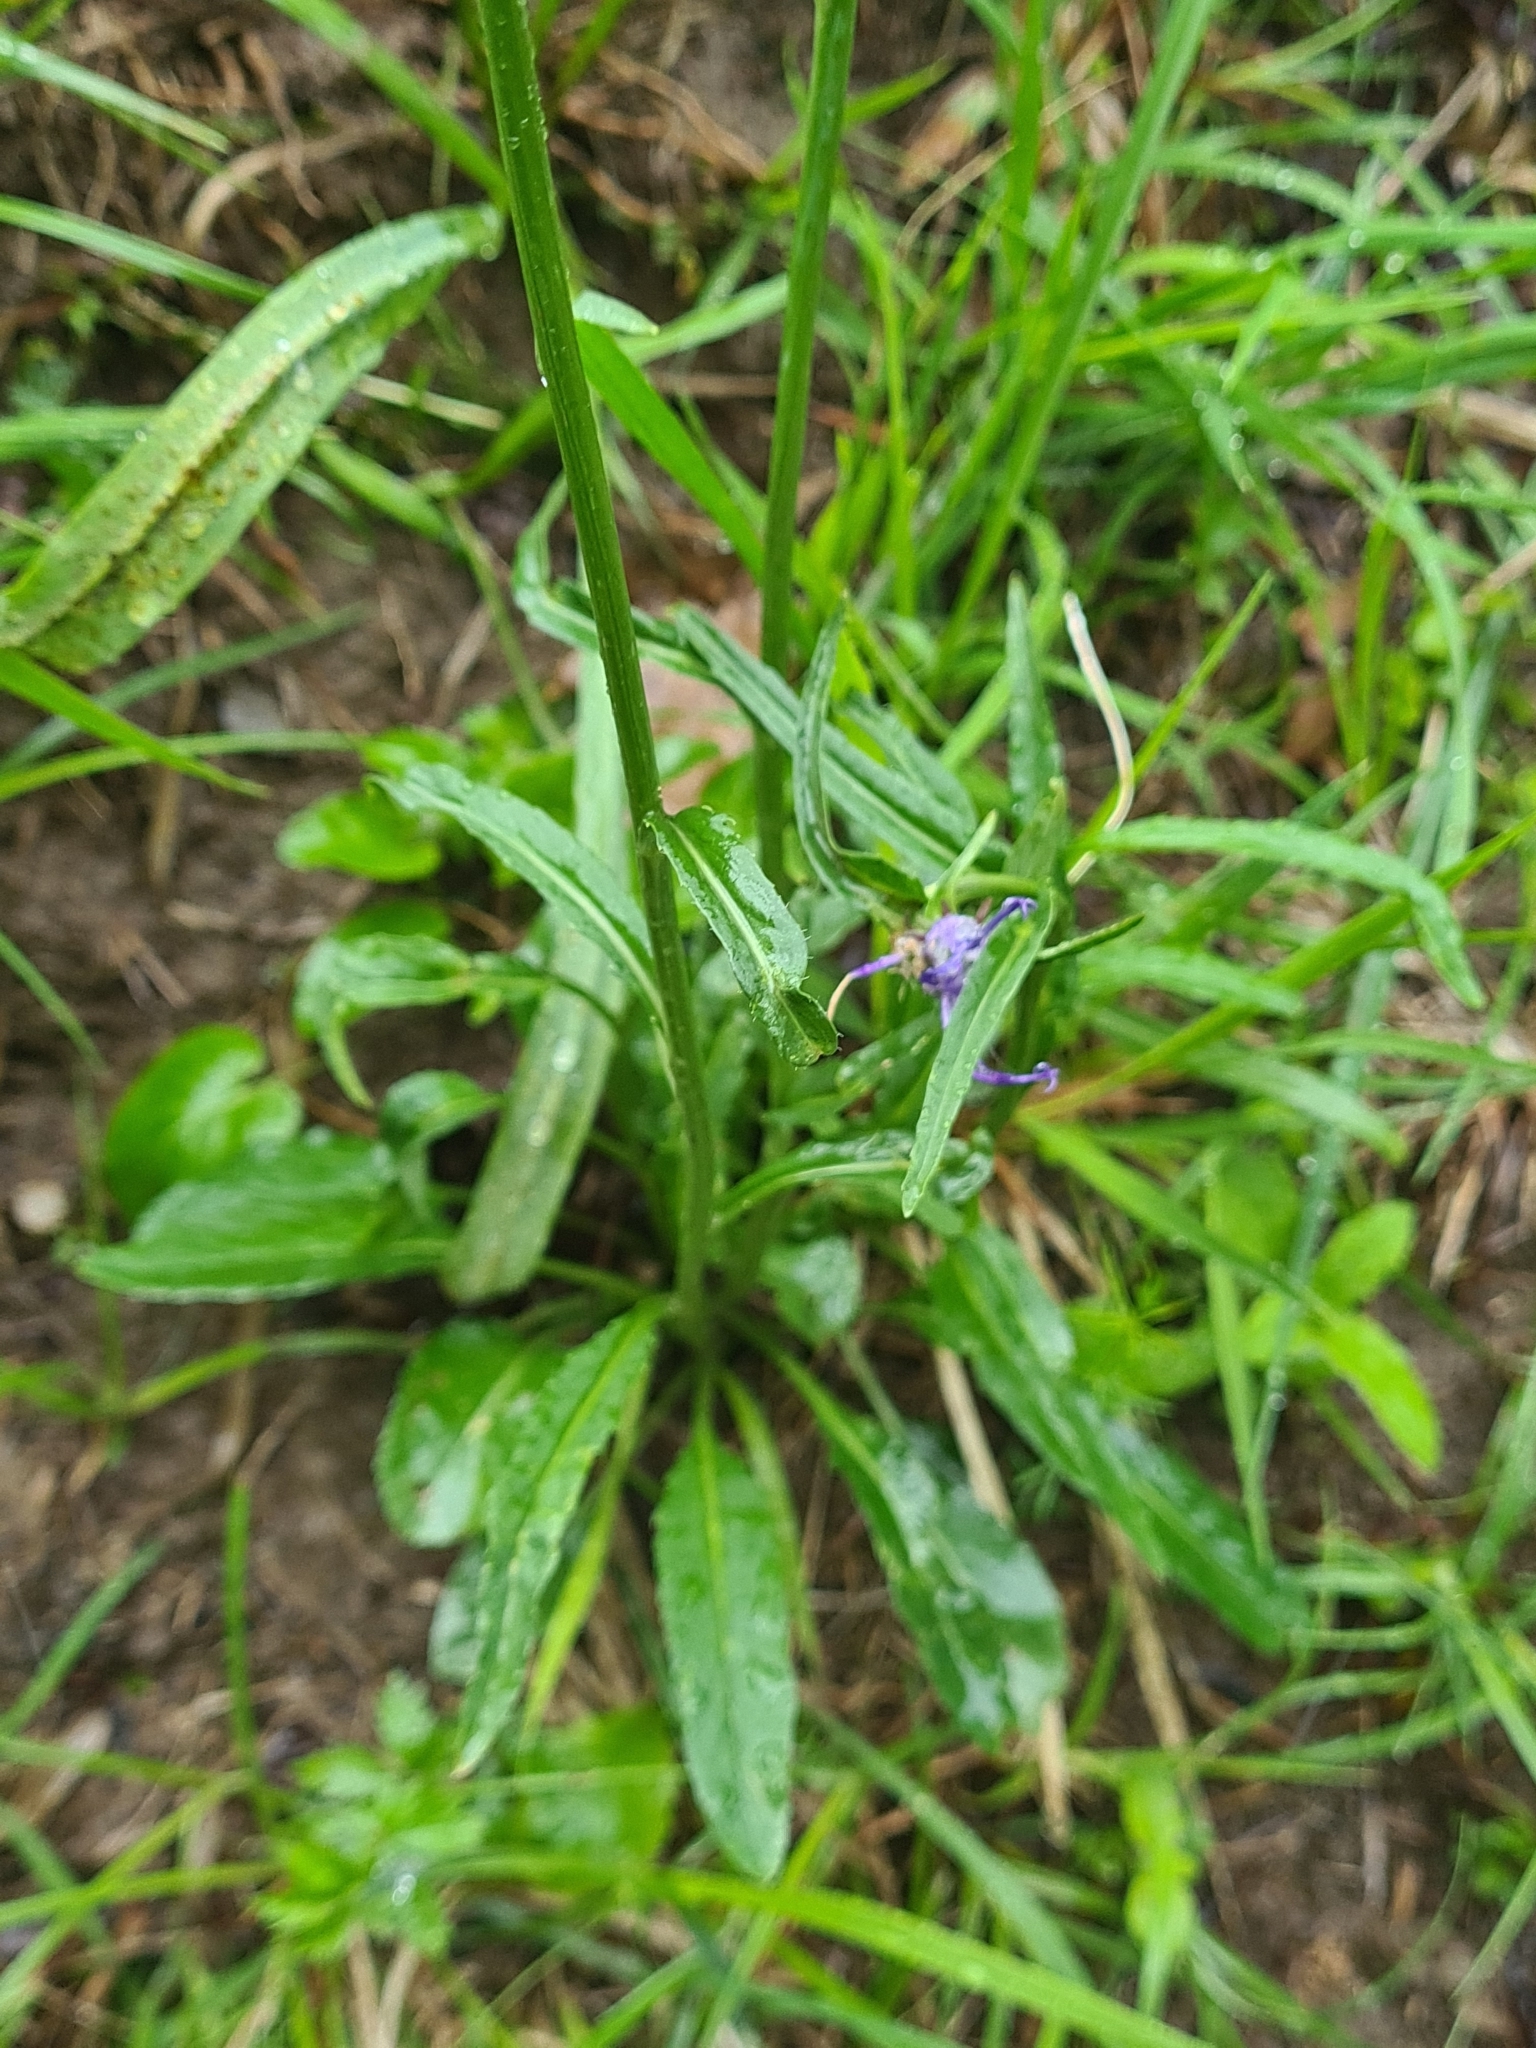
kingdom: Plantae
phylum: Tracheophyta
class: Magnoliopsida
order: Asterales
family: Campanulaceae
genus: Phyteuma
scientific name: Phyteuma orbiculare
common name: Round-headed rampion
